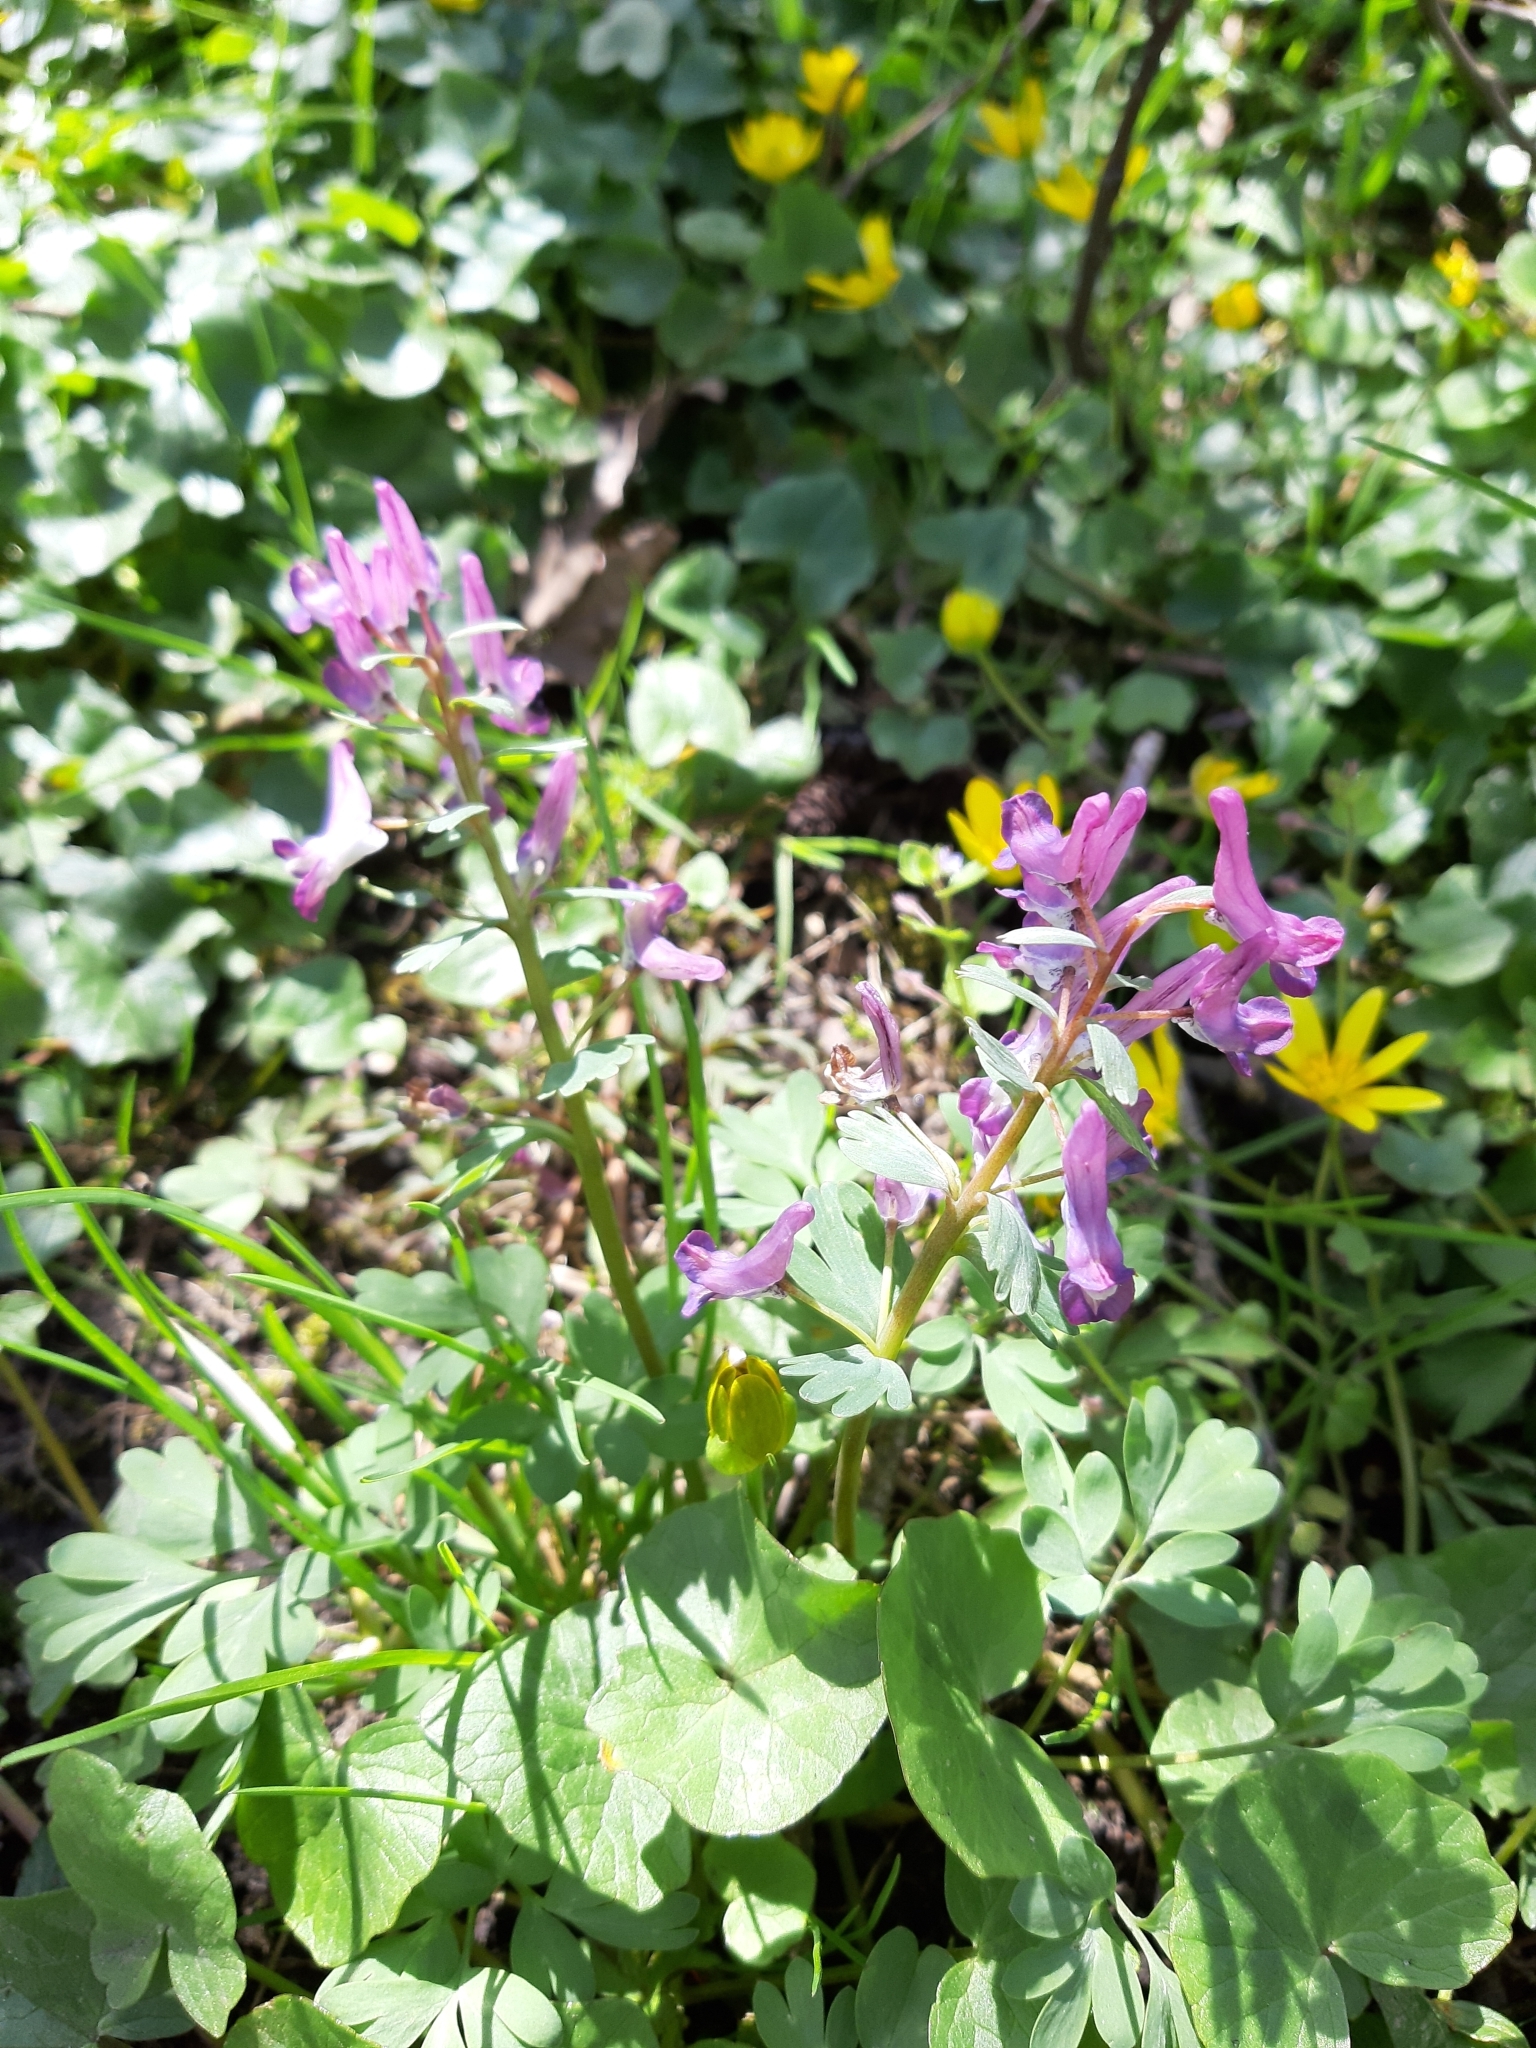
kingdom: Plantae
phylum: Tracheophyta
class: Magnoliopsida
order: Ranunculales
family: Papaveraceae
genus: Corydalis
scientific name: Corydalis solida
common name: Bird-in-a-bush
